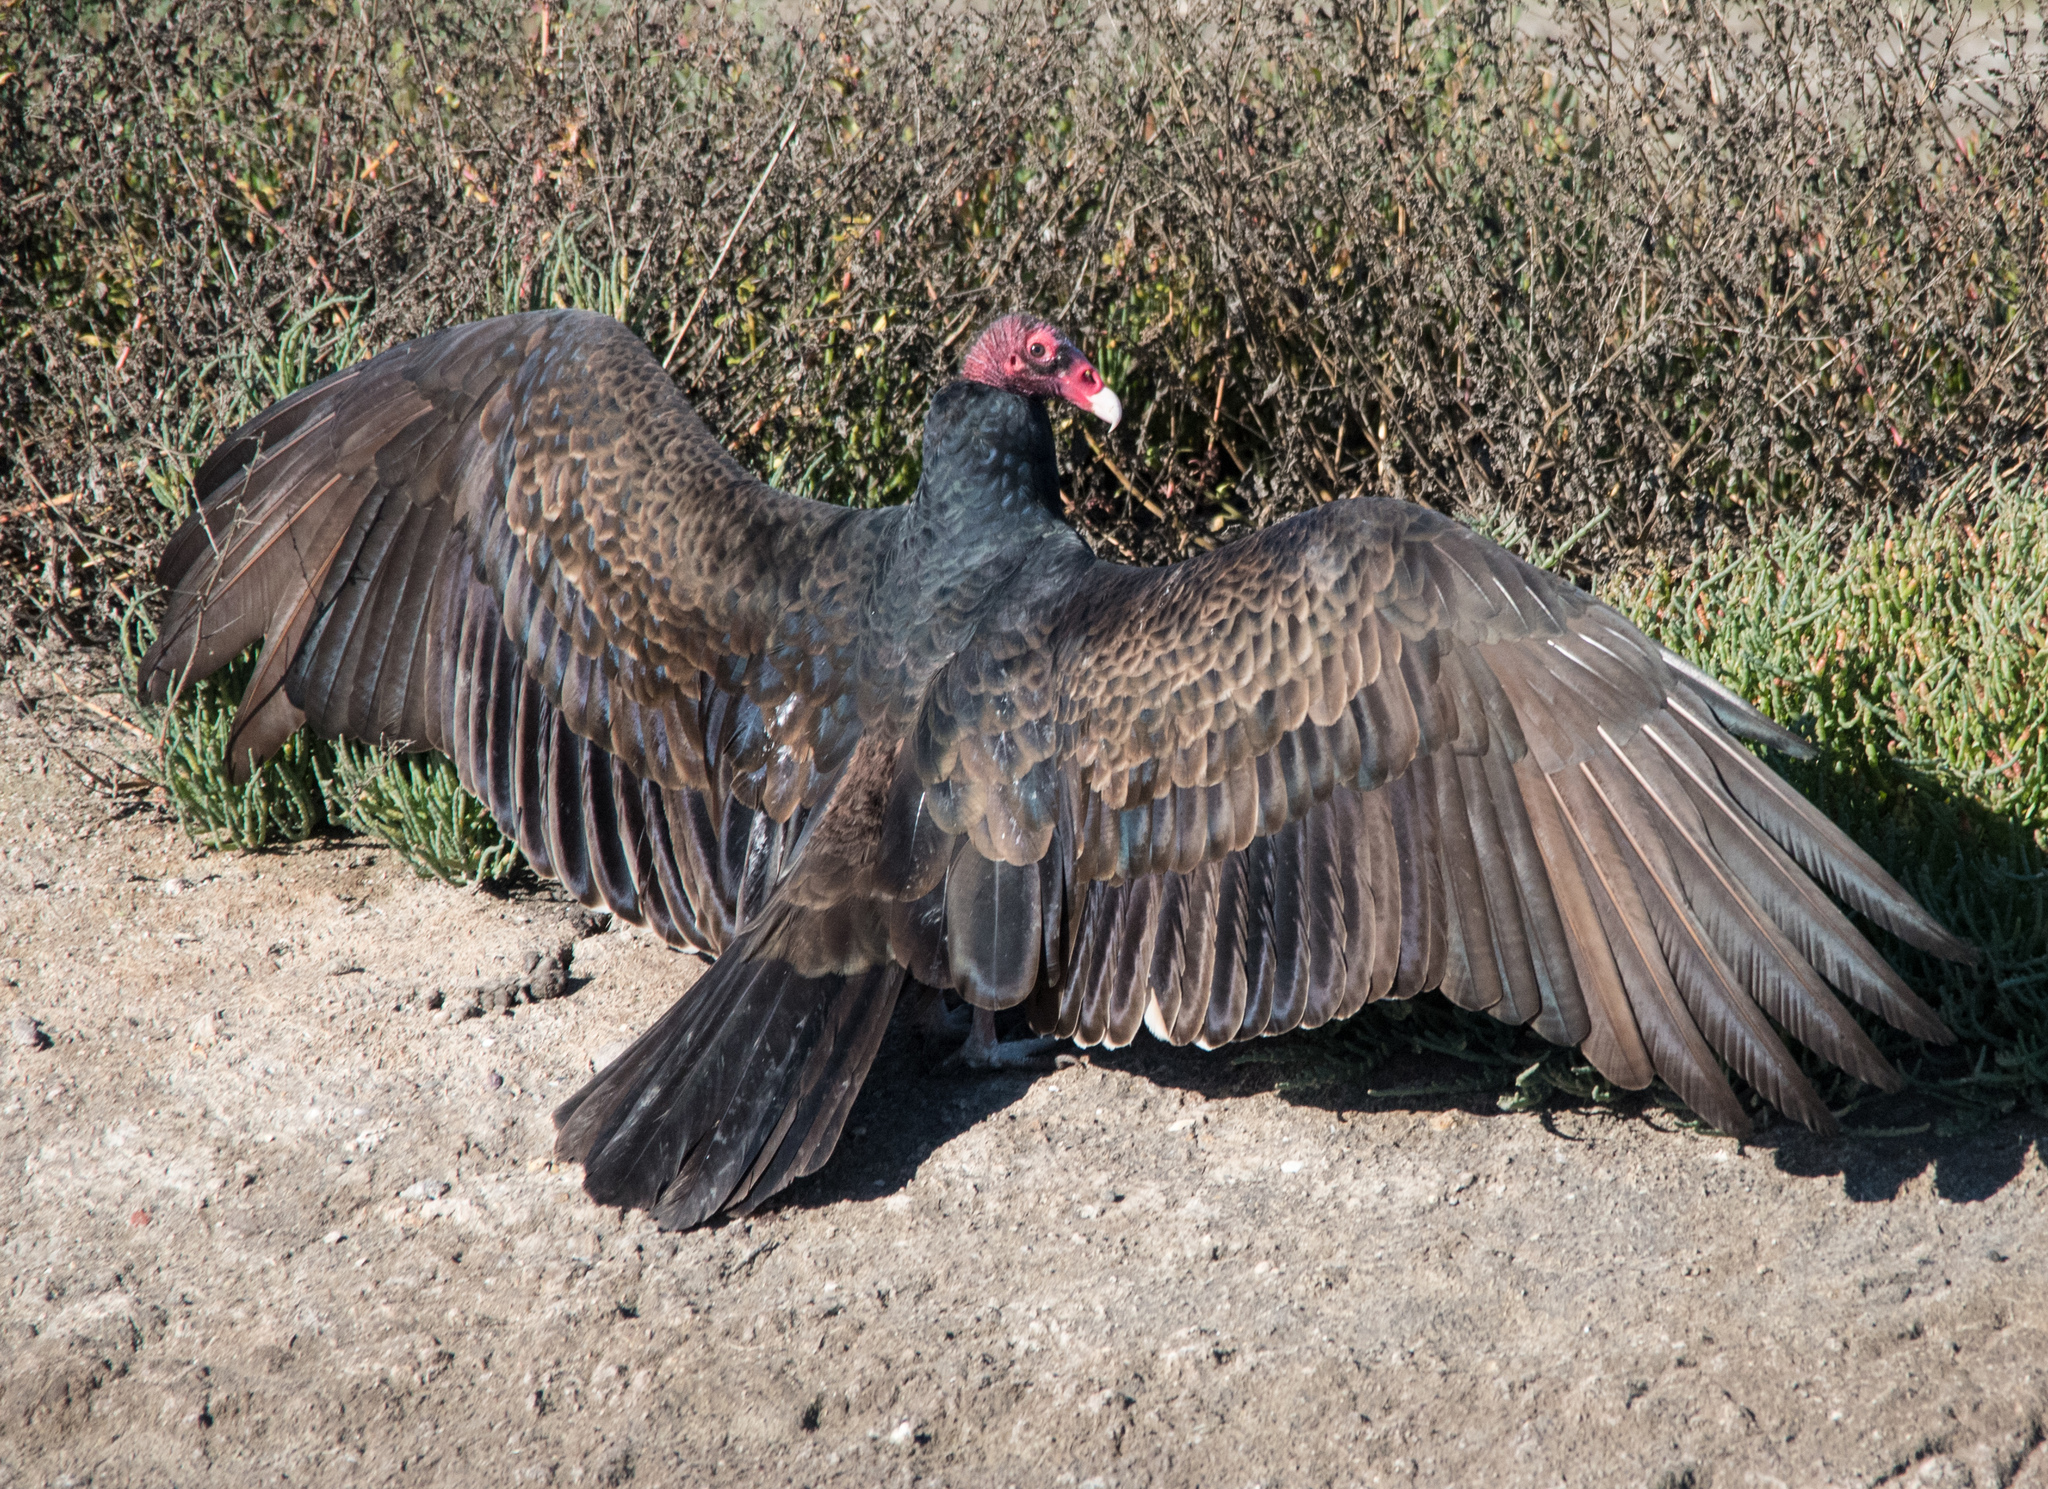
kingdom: Animalia
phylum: Chordata
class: Aves
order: Accipitriformes
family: Cathartidae
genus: Cathartes
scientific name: Cathartes aura
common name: Turkey vulture
